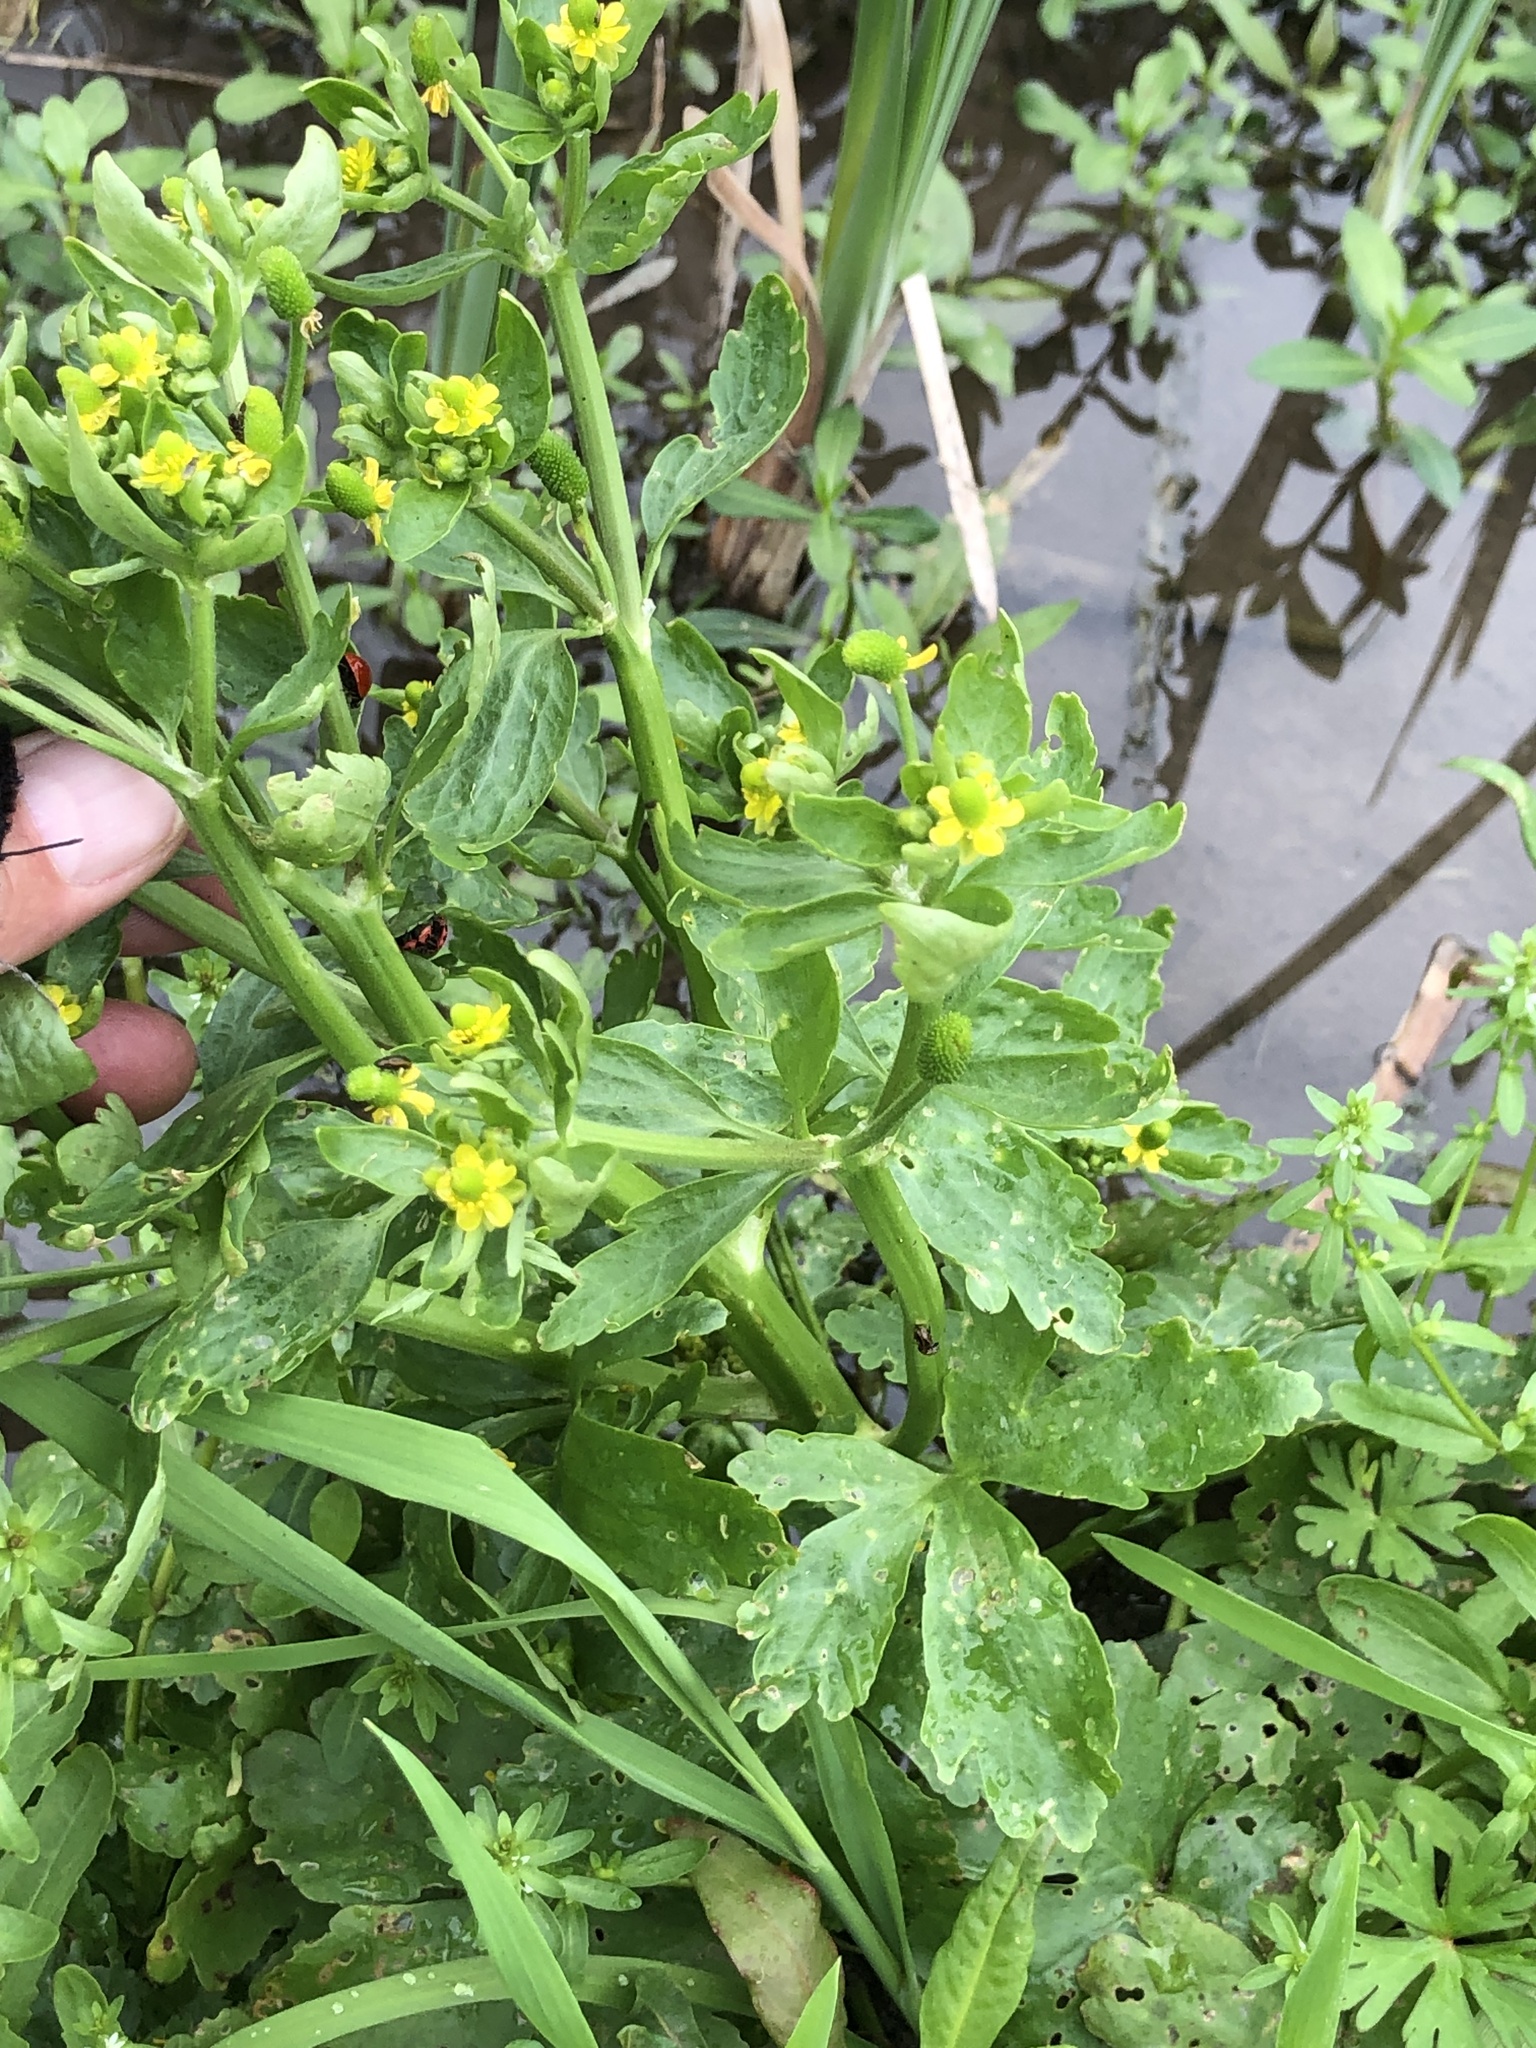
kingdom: Plantae
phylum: Tracheophyta
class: Magnoliopsida
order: Ranunculales
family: Ranunculaceae
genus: Ranunculus
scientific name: Ranunculus sceleratus
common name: Celery-leaved buttercup
